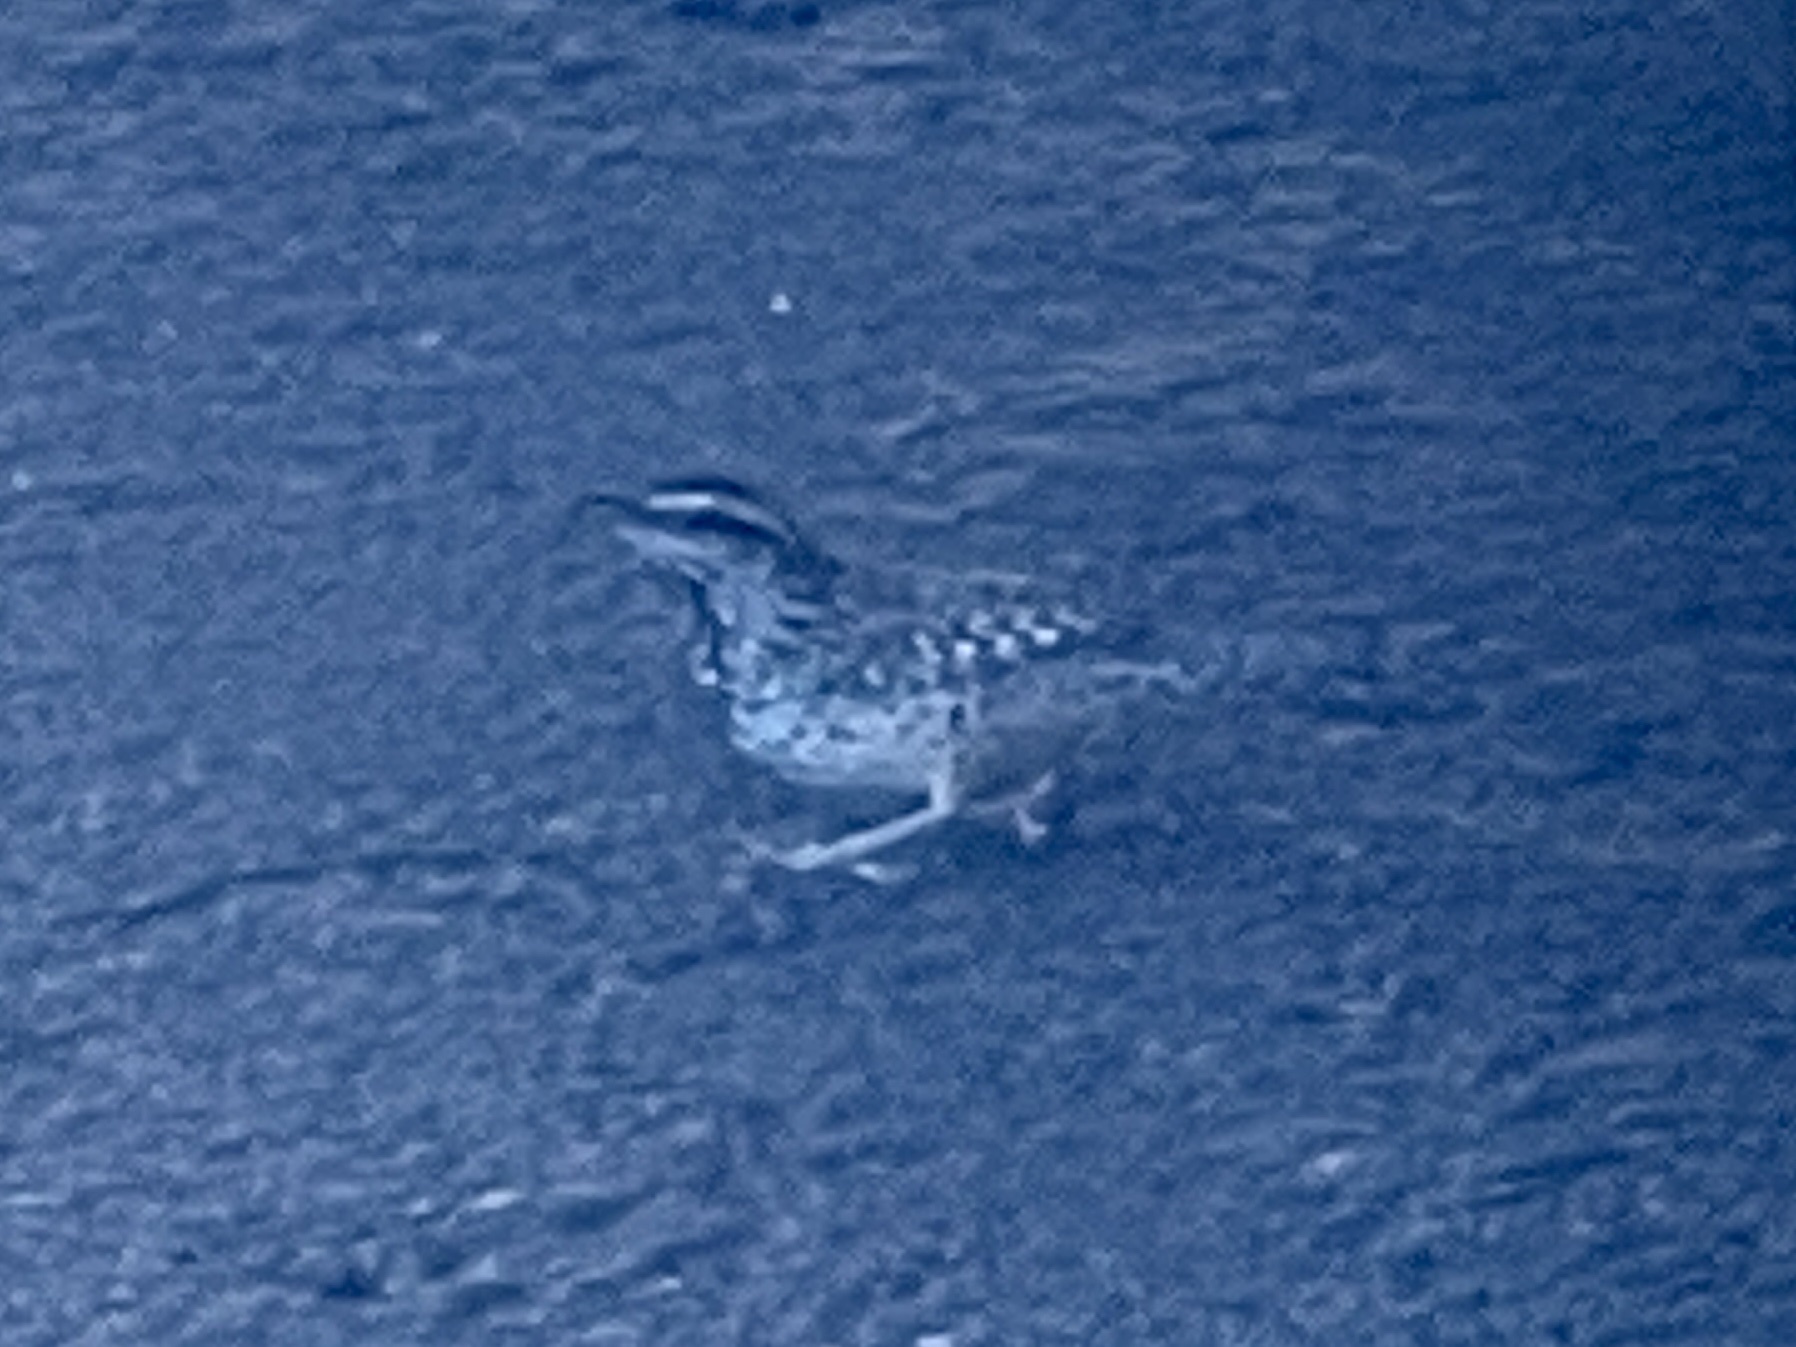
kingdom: Animalia
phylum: Chordata
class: Aves
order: Passeriformes
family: Troglodytidae
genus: Campylorhynchus
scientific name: Campylorhynchus brunneicapillus
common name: Cactus wren
